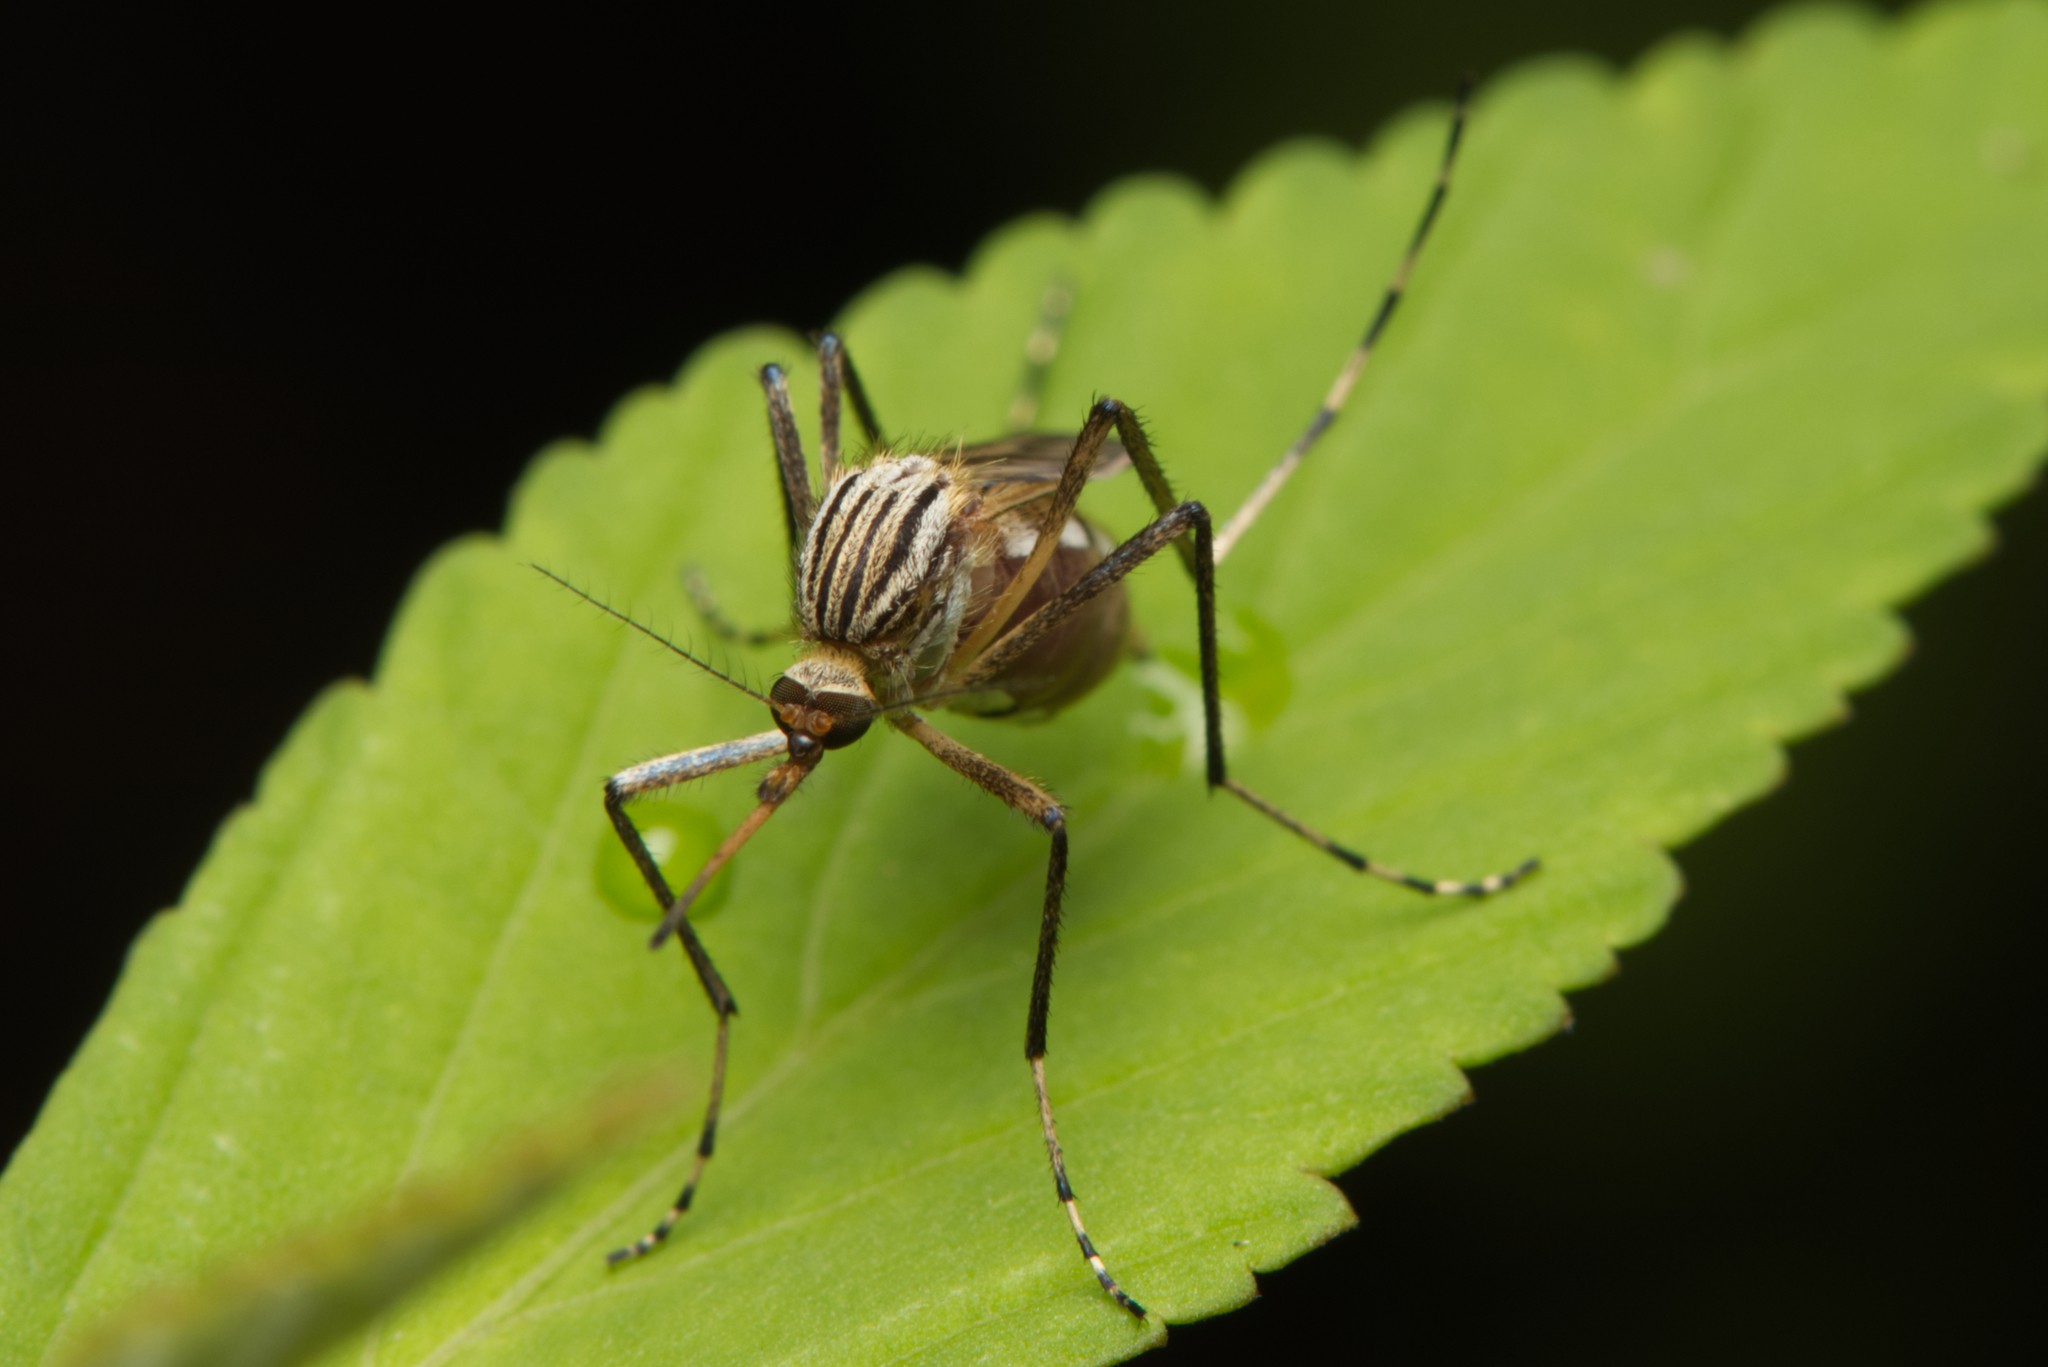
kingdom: Animalia
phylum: Arthropoda
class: Insecta
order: Diptera
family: Culicidae
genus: Aedes
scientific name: Aedes vittiger
